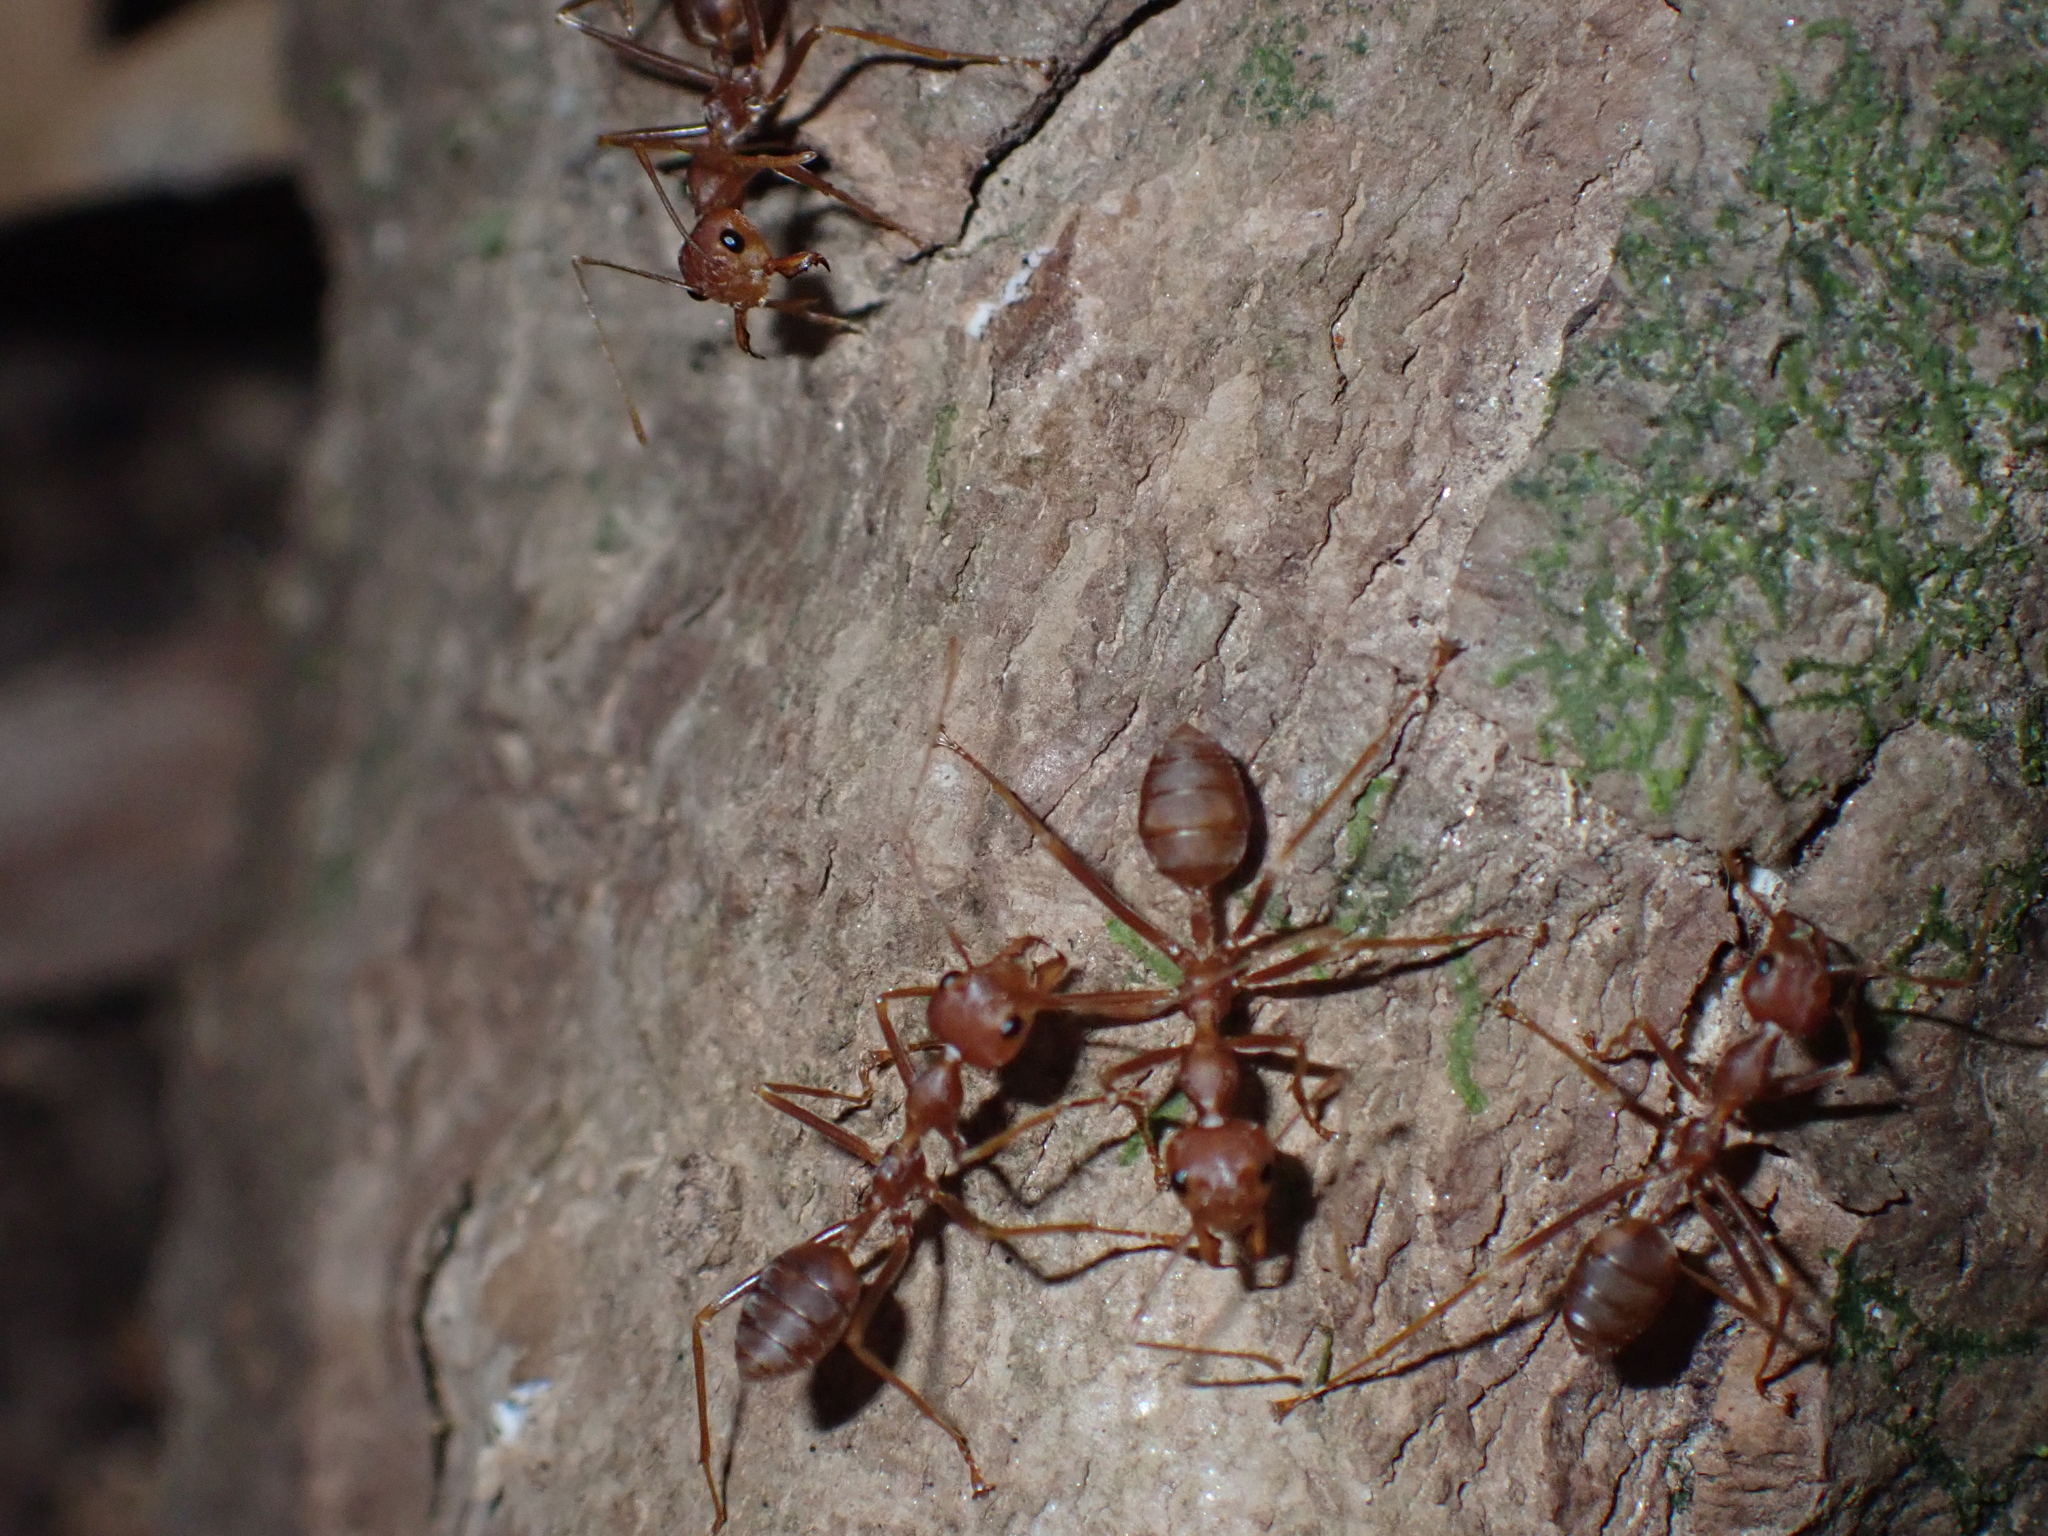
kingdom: Animalia
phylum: Arthropoda
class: Insecta
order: Hymenoptera
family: Formicidae
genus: Oecophylla
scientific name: Oecophylla smaragdina
